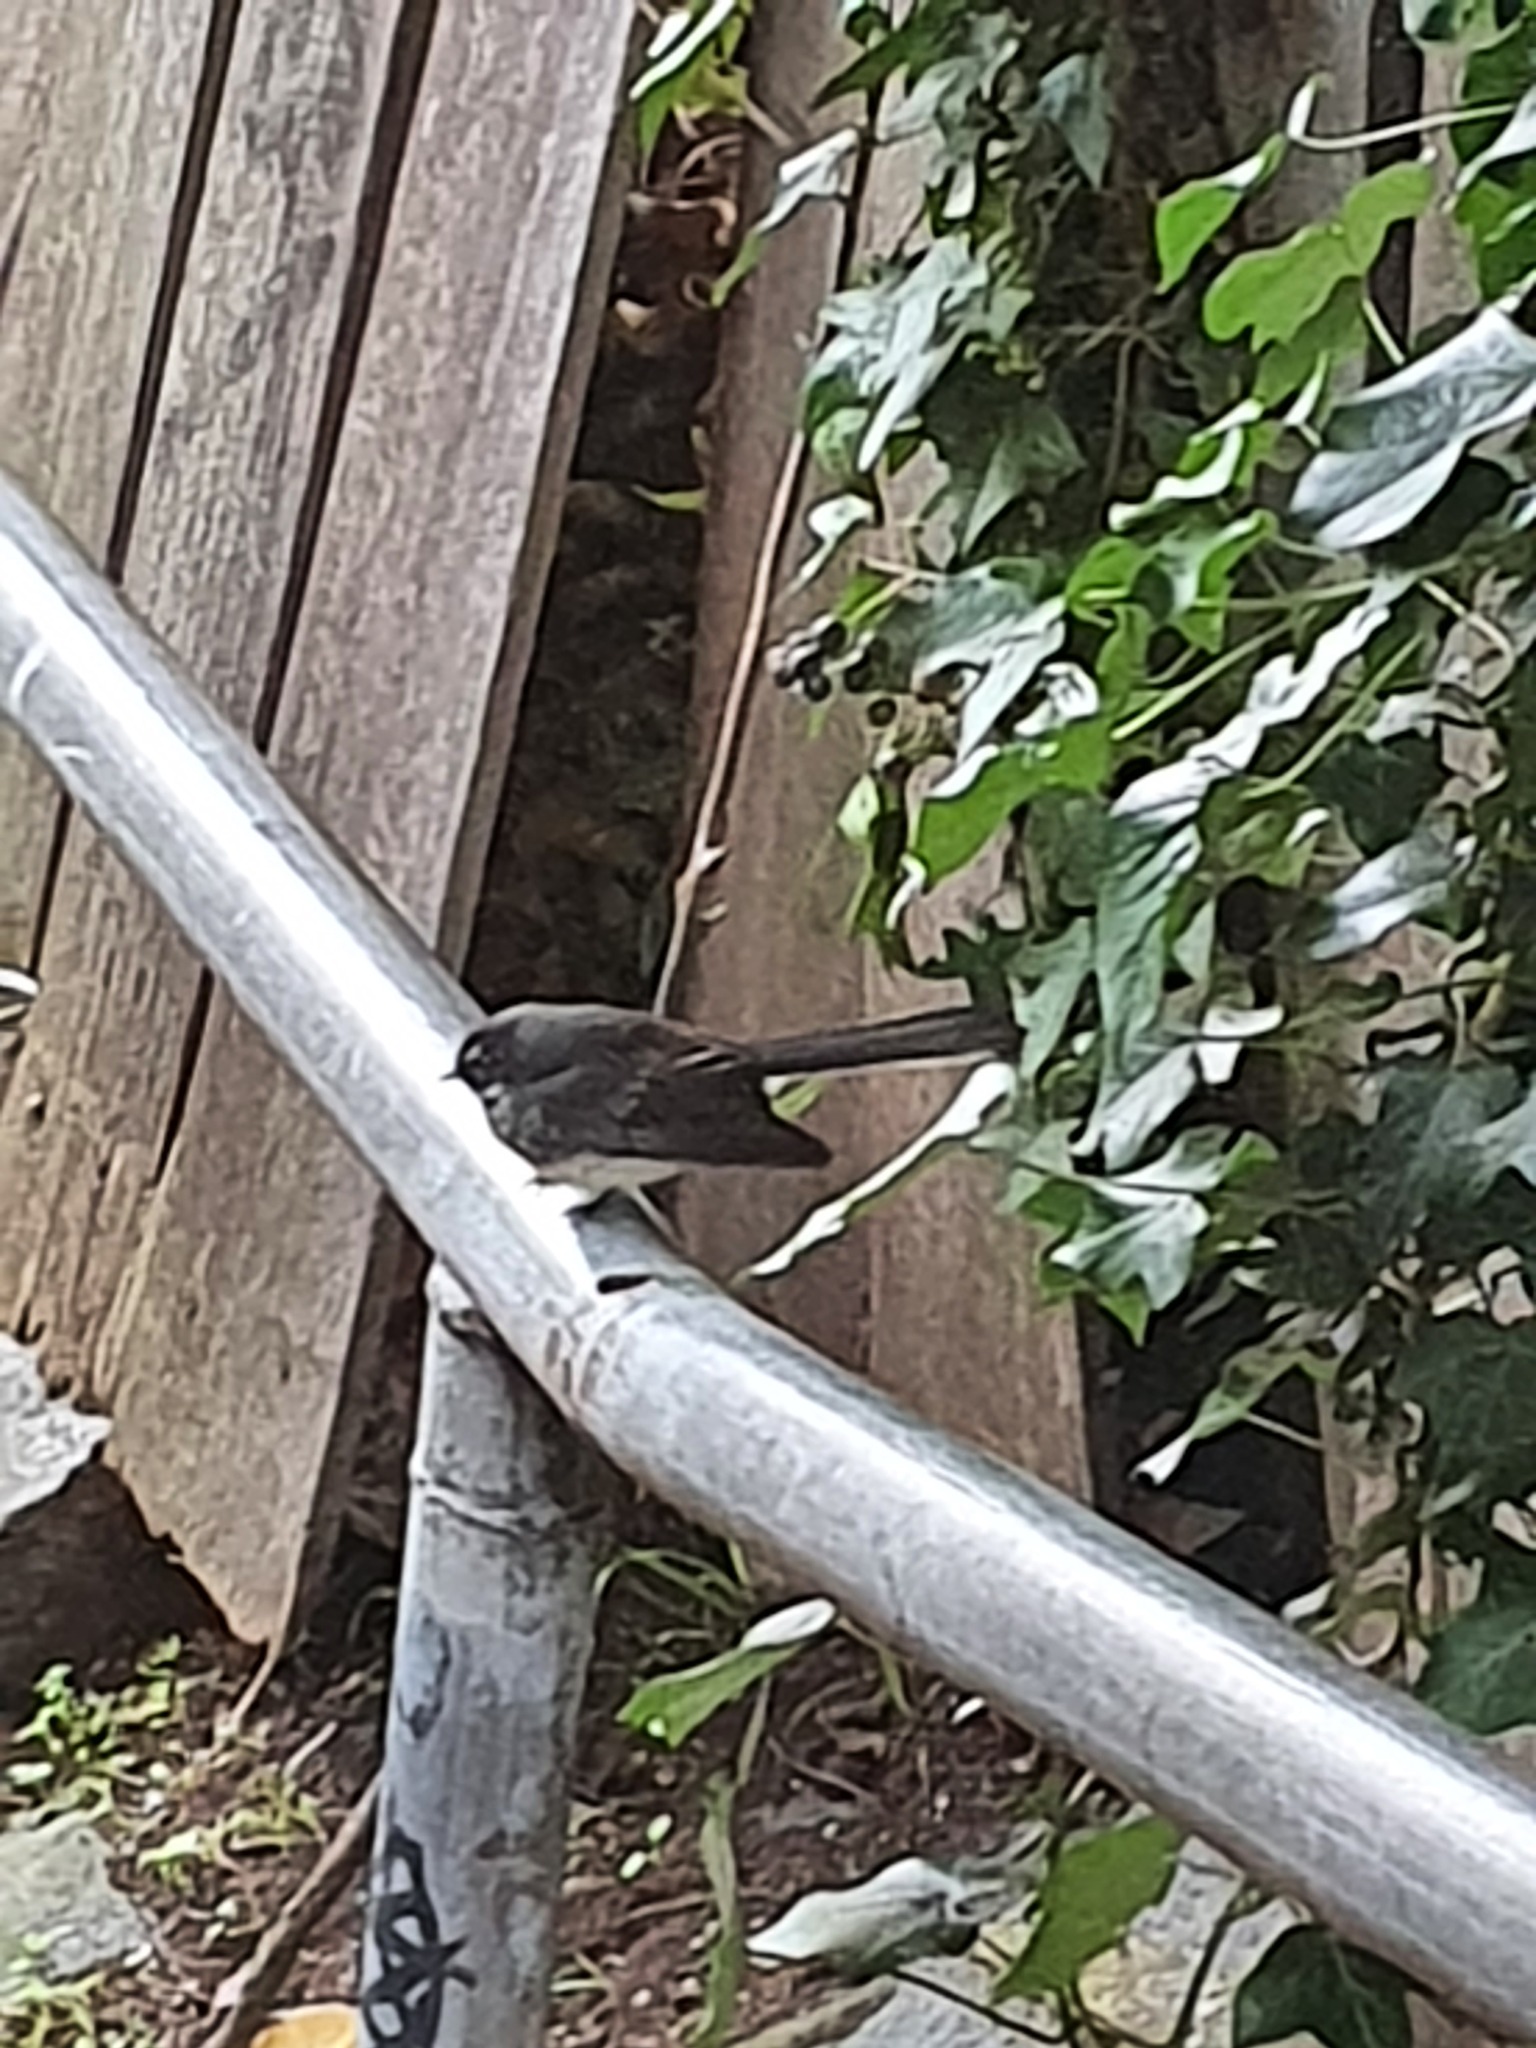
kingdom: Animalia
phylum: Chordata
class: Aves
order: Passeriformes
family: Rhipiduridae
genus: Rhipidura
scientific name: Rhipidura albiscapa
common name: Grey fantail
